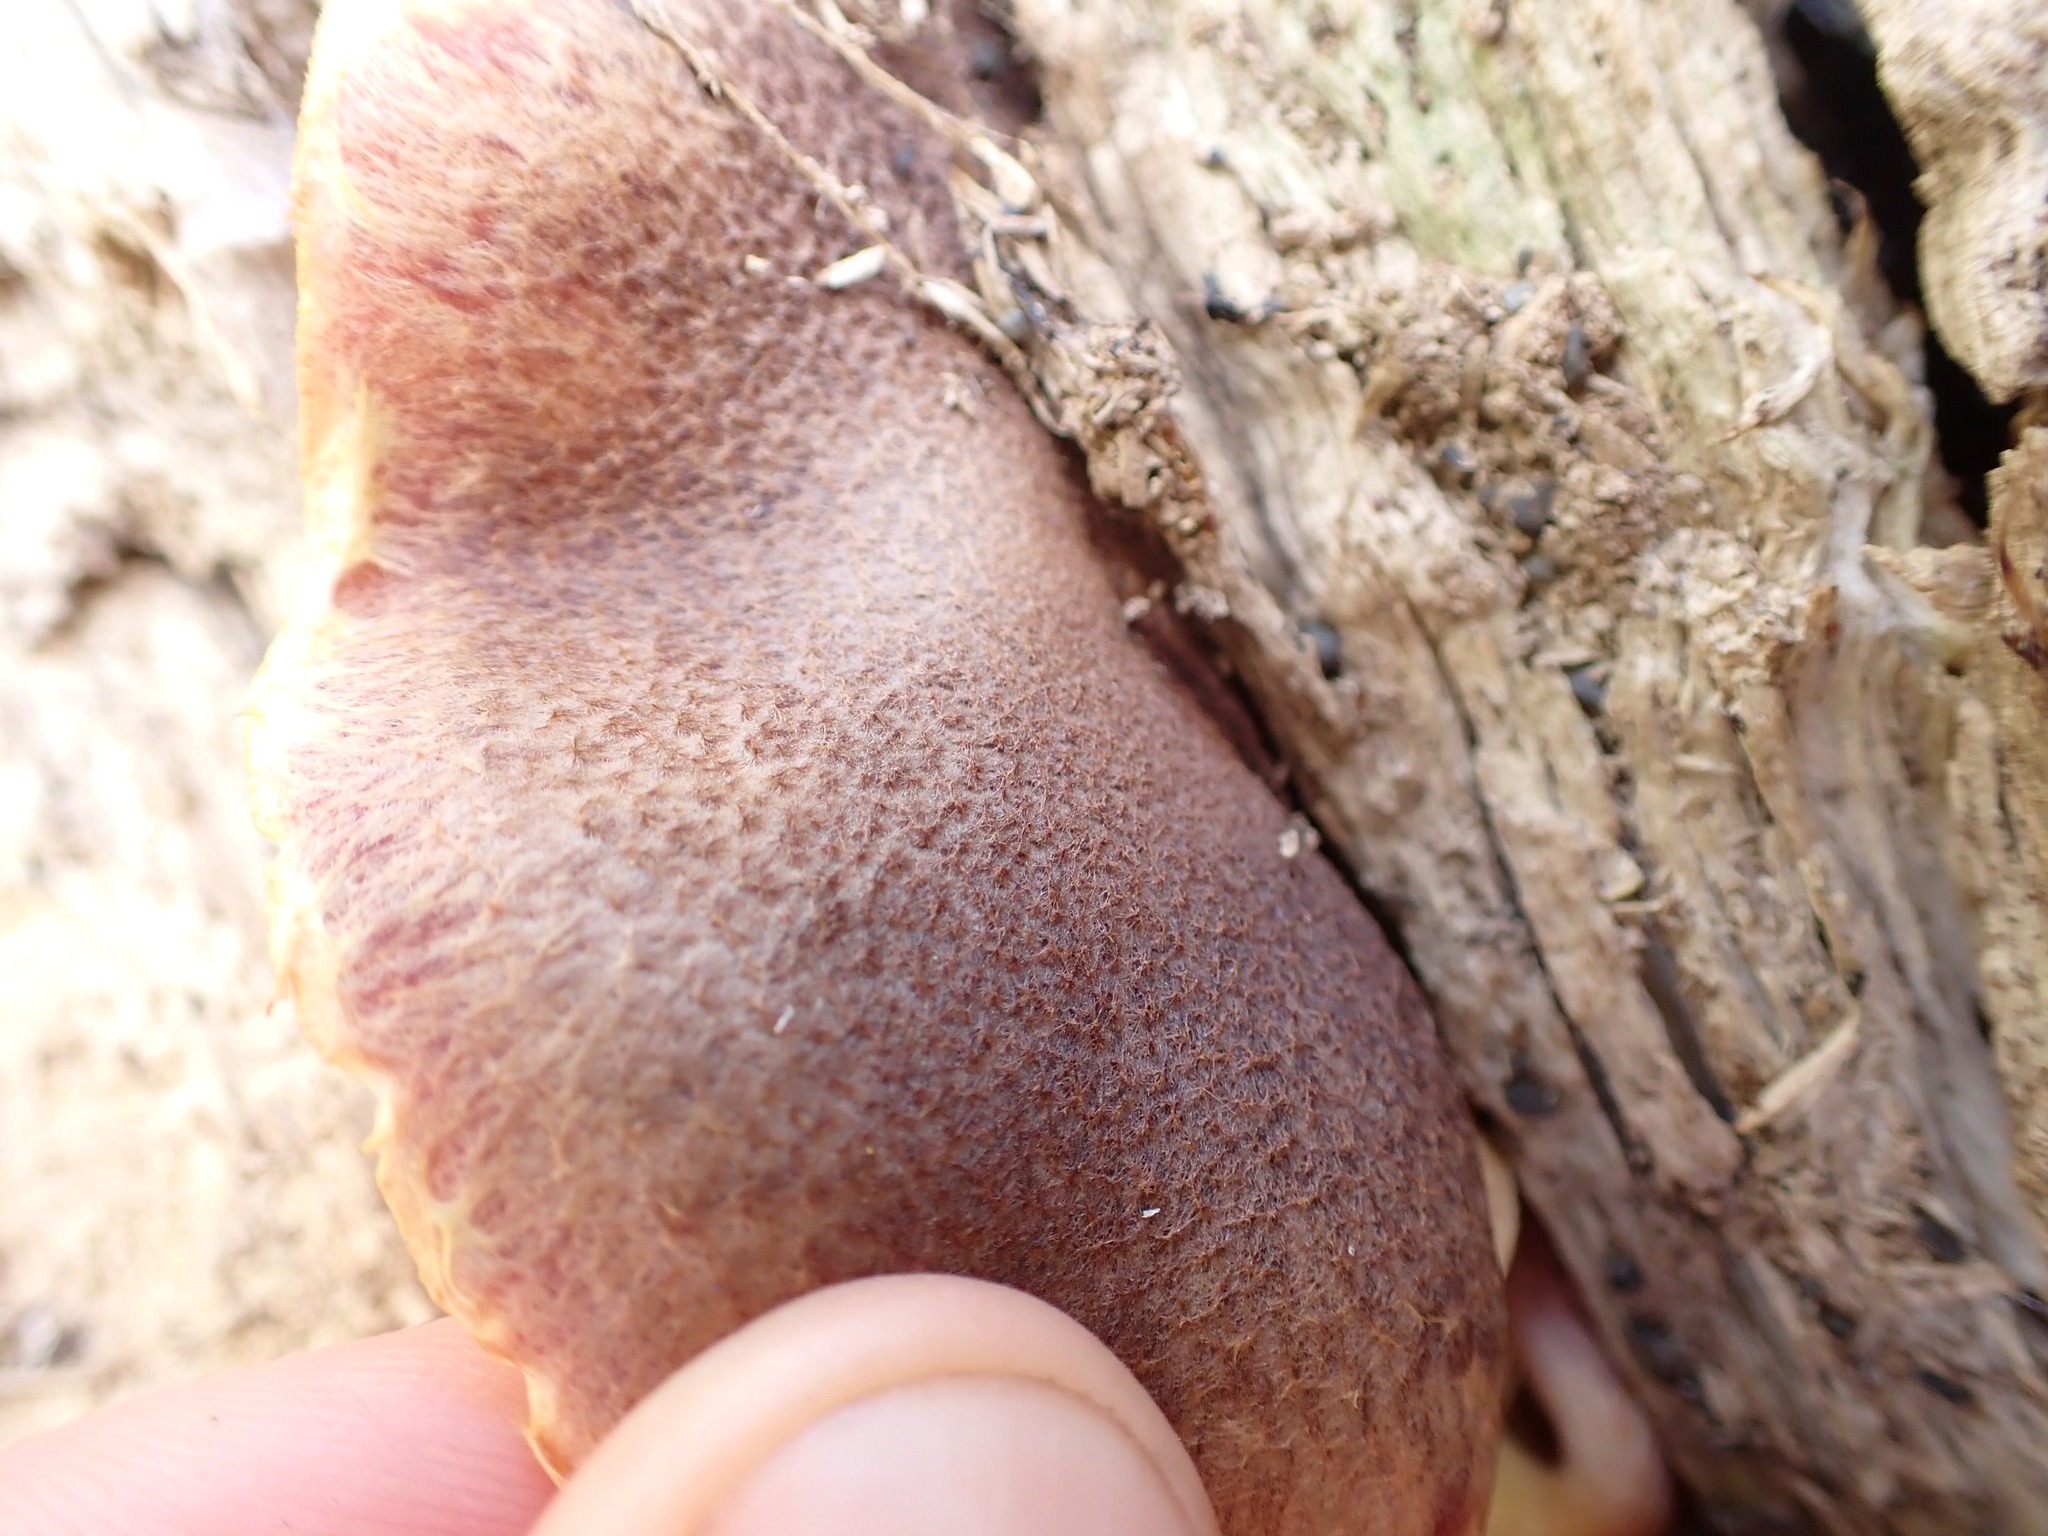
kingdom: Fungi
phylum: Basidiomycota
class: Agaricomycetes
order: Agaricales
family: Hymenogastraceae
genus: Gymnopilus
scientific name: Gymnopilus purpuratus
